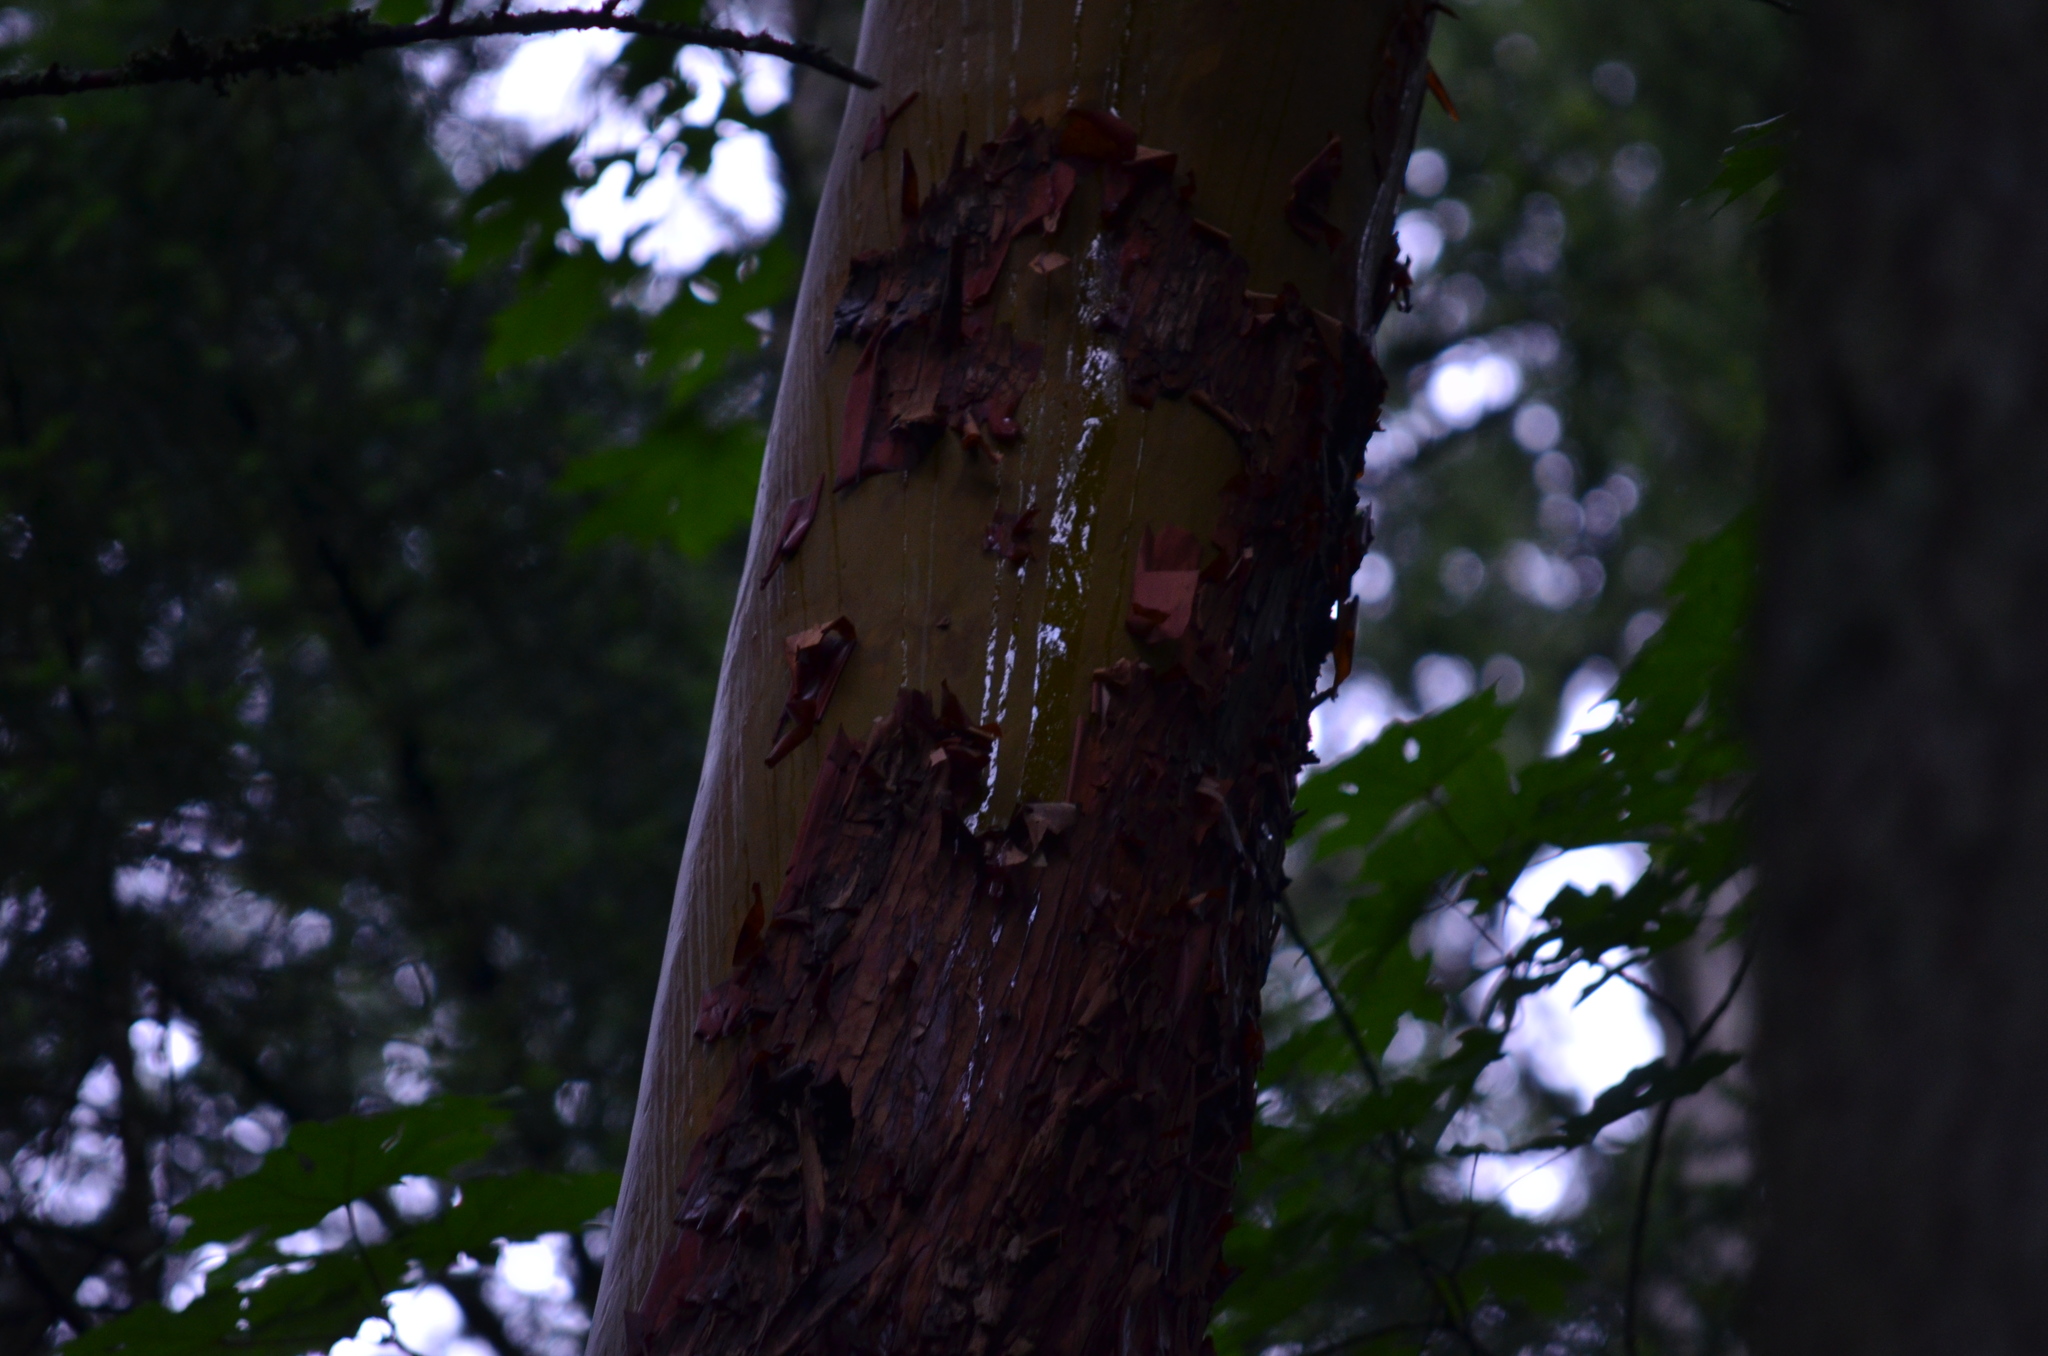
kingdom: Plantae
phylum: Tracheophyta
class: Magnoliopsida
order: Ericales
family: Ericaceae
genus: Arbutus
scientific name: Arbutus menziesii
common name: Pacific madrone
